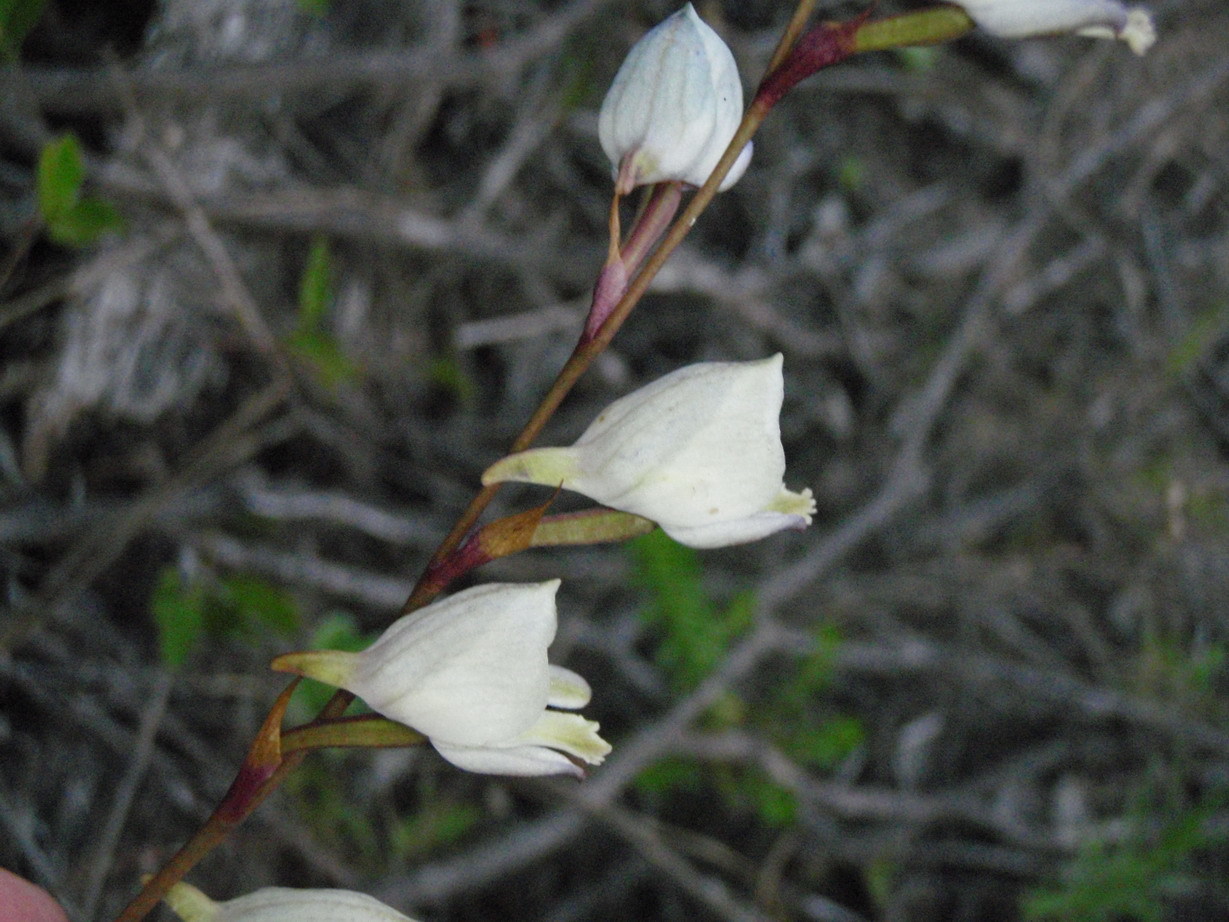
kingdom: Plantae
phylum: Tracheophyta
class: Liliopsida
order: Asparagales
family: Orchidaceae
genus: Disa
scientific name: Disa hians
